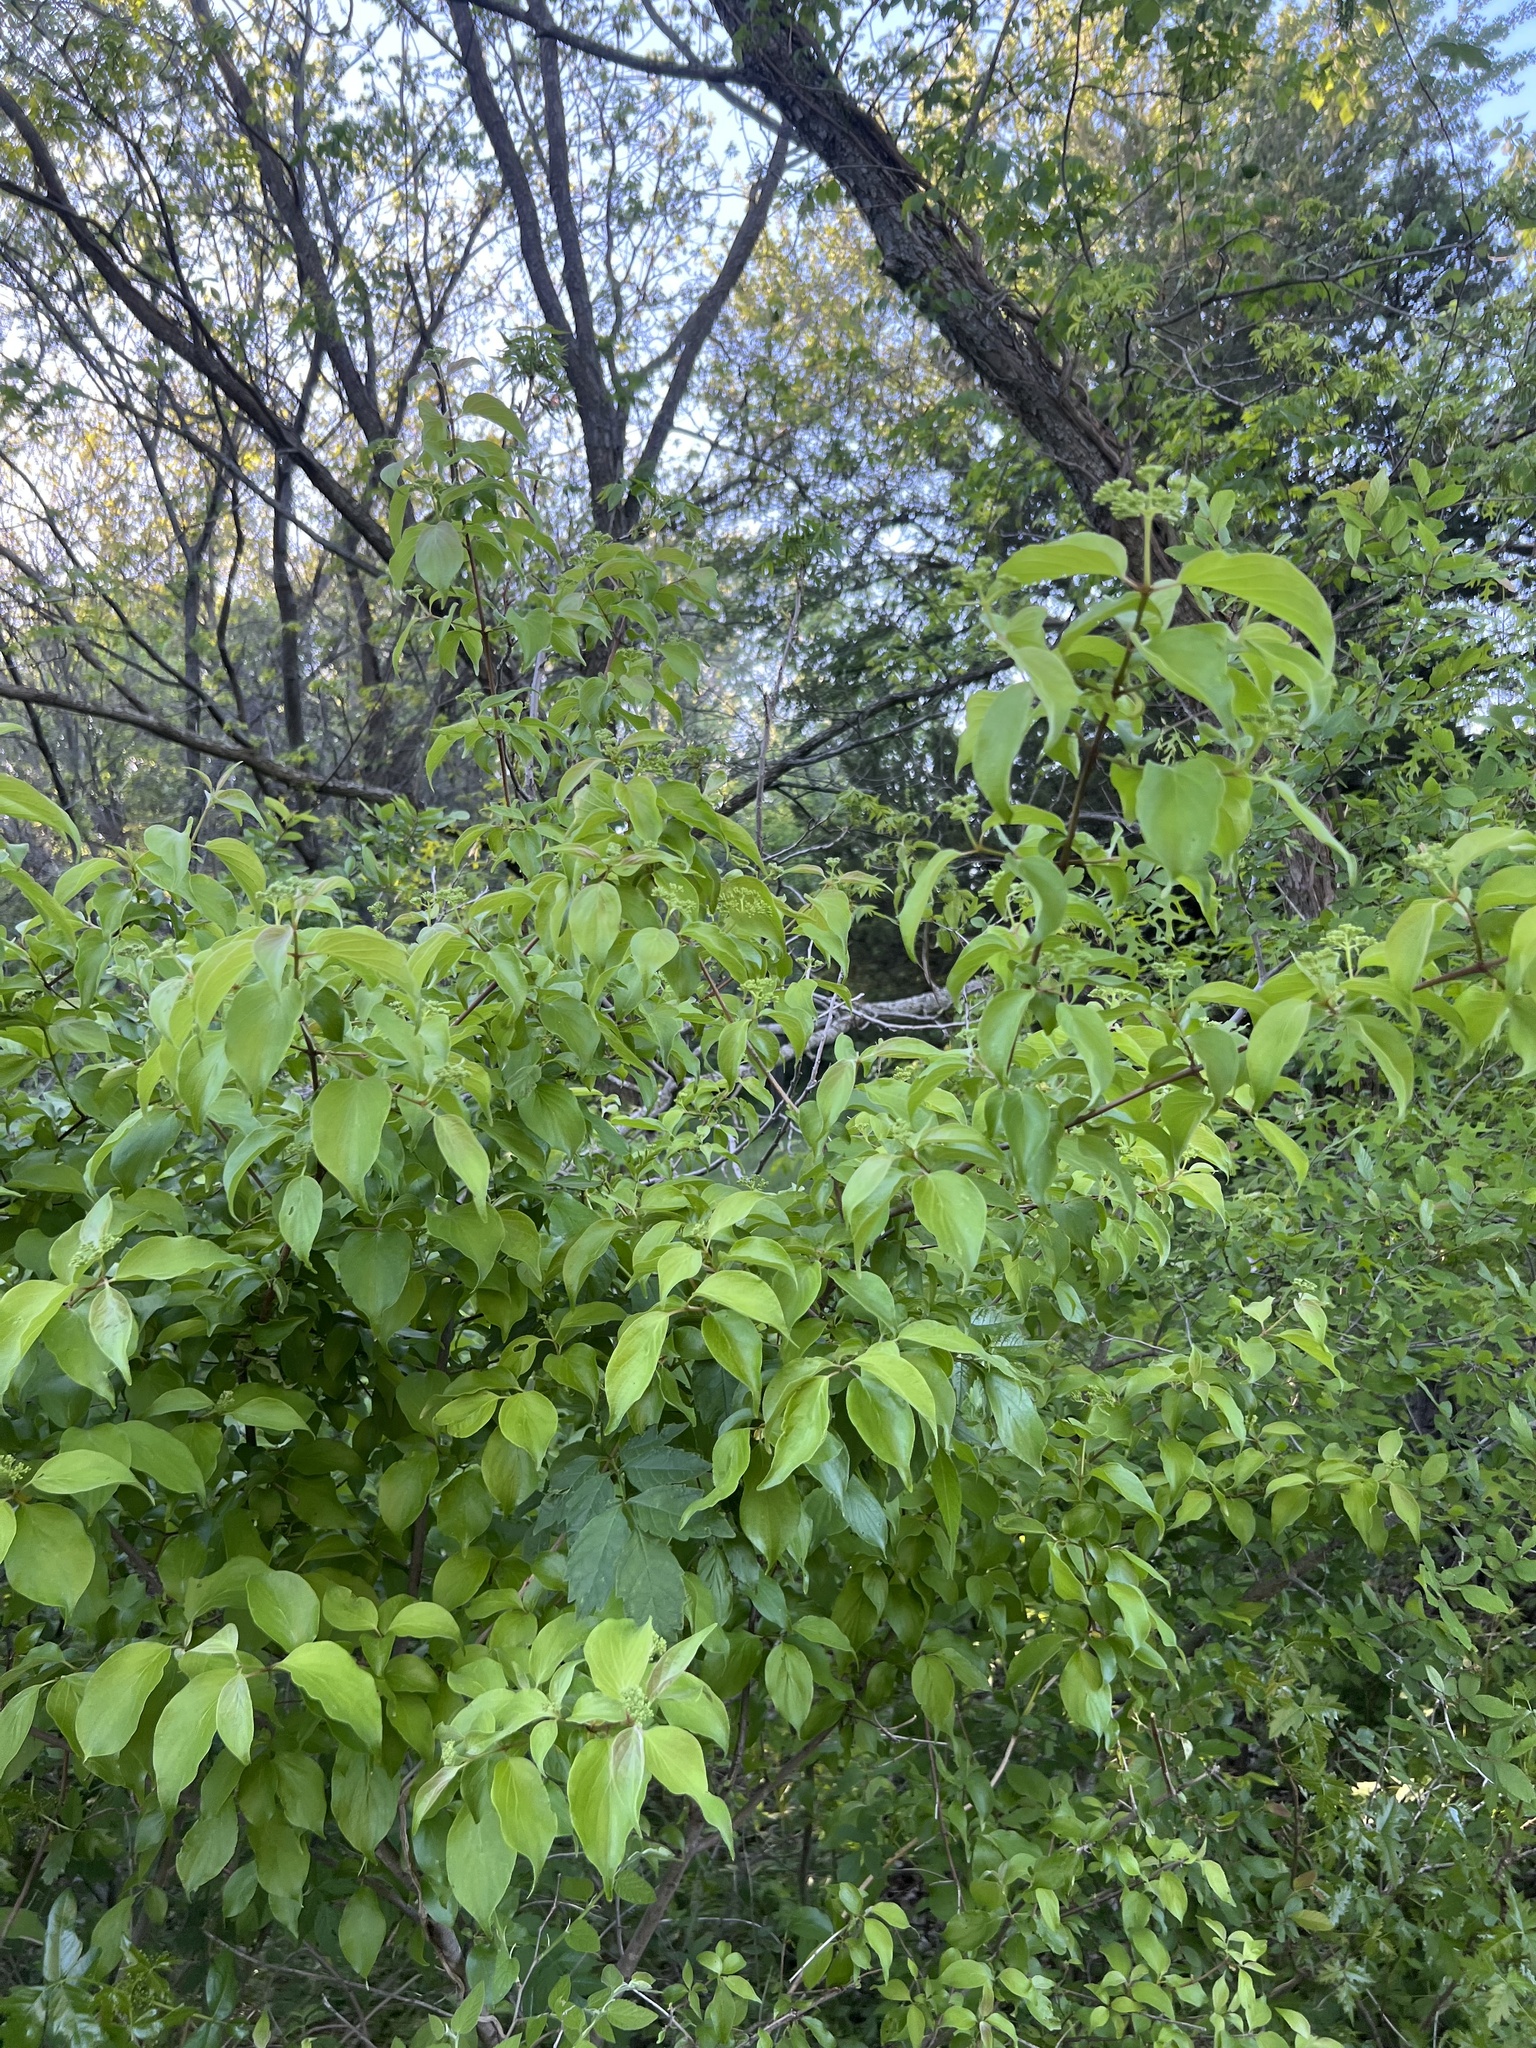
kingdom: Plantae
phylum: Tracheophyta
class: Magnoliopsida
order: Cornales
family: Cornaceae
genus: Cornus
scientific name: Cornus drummondii
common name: Rough-leaf dogwood
